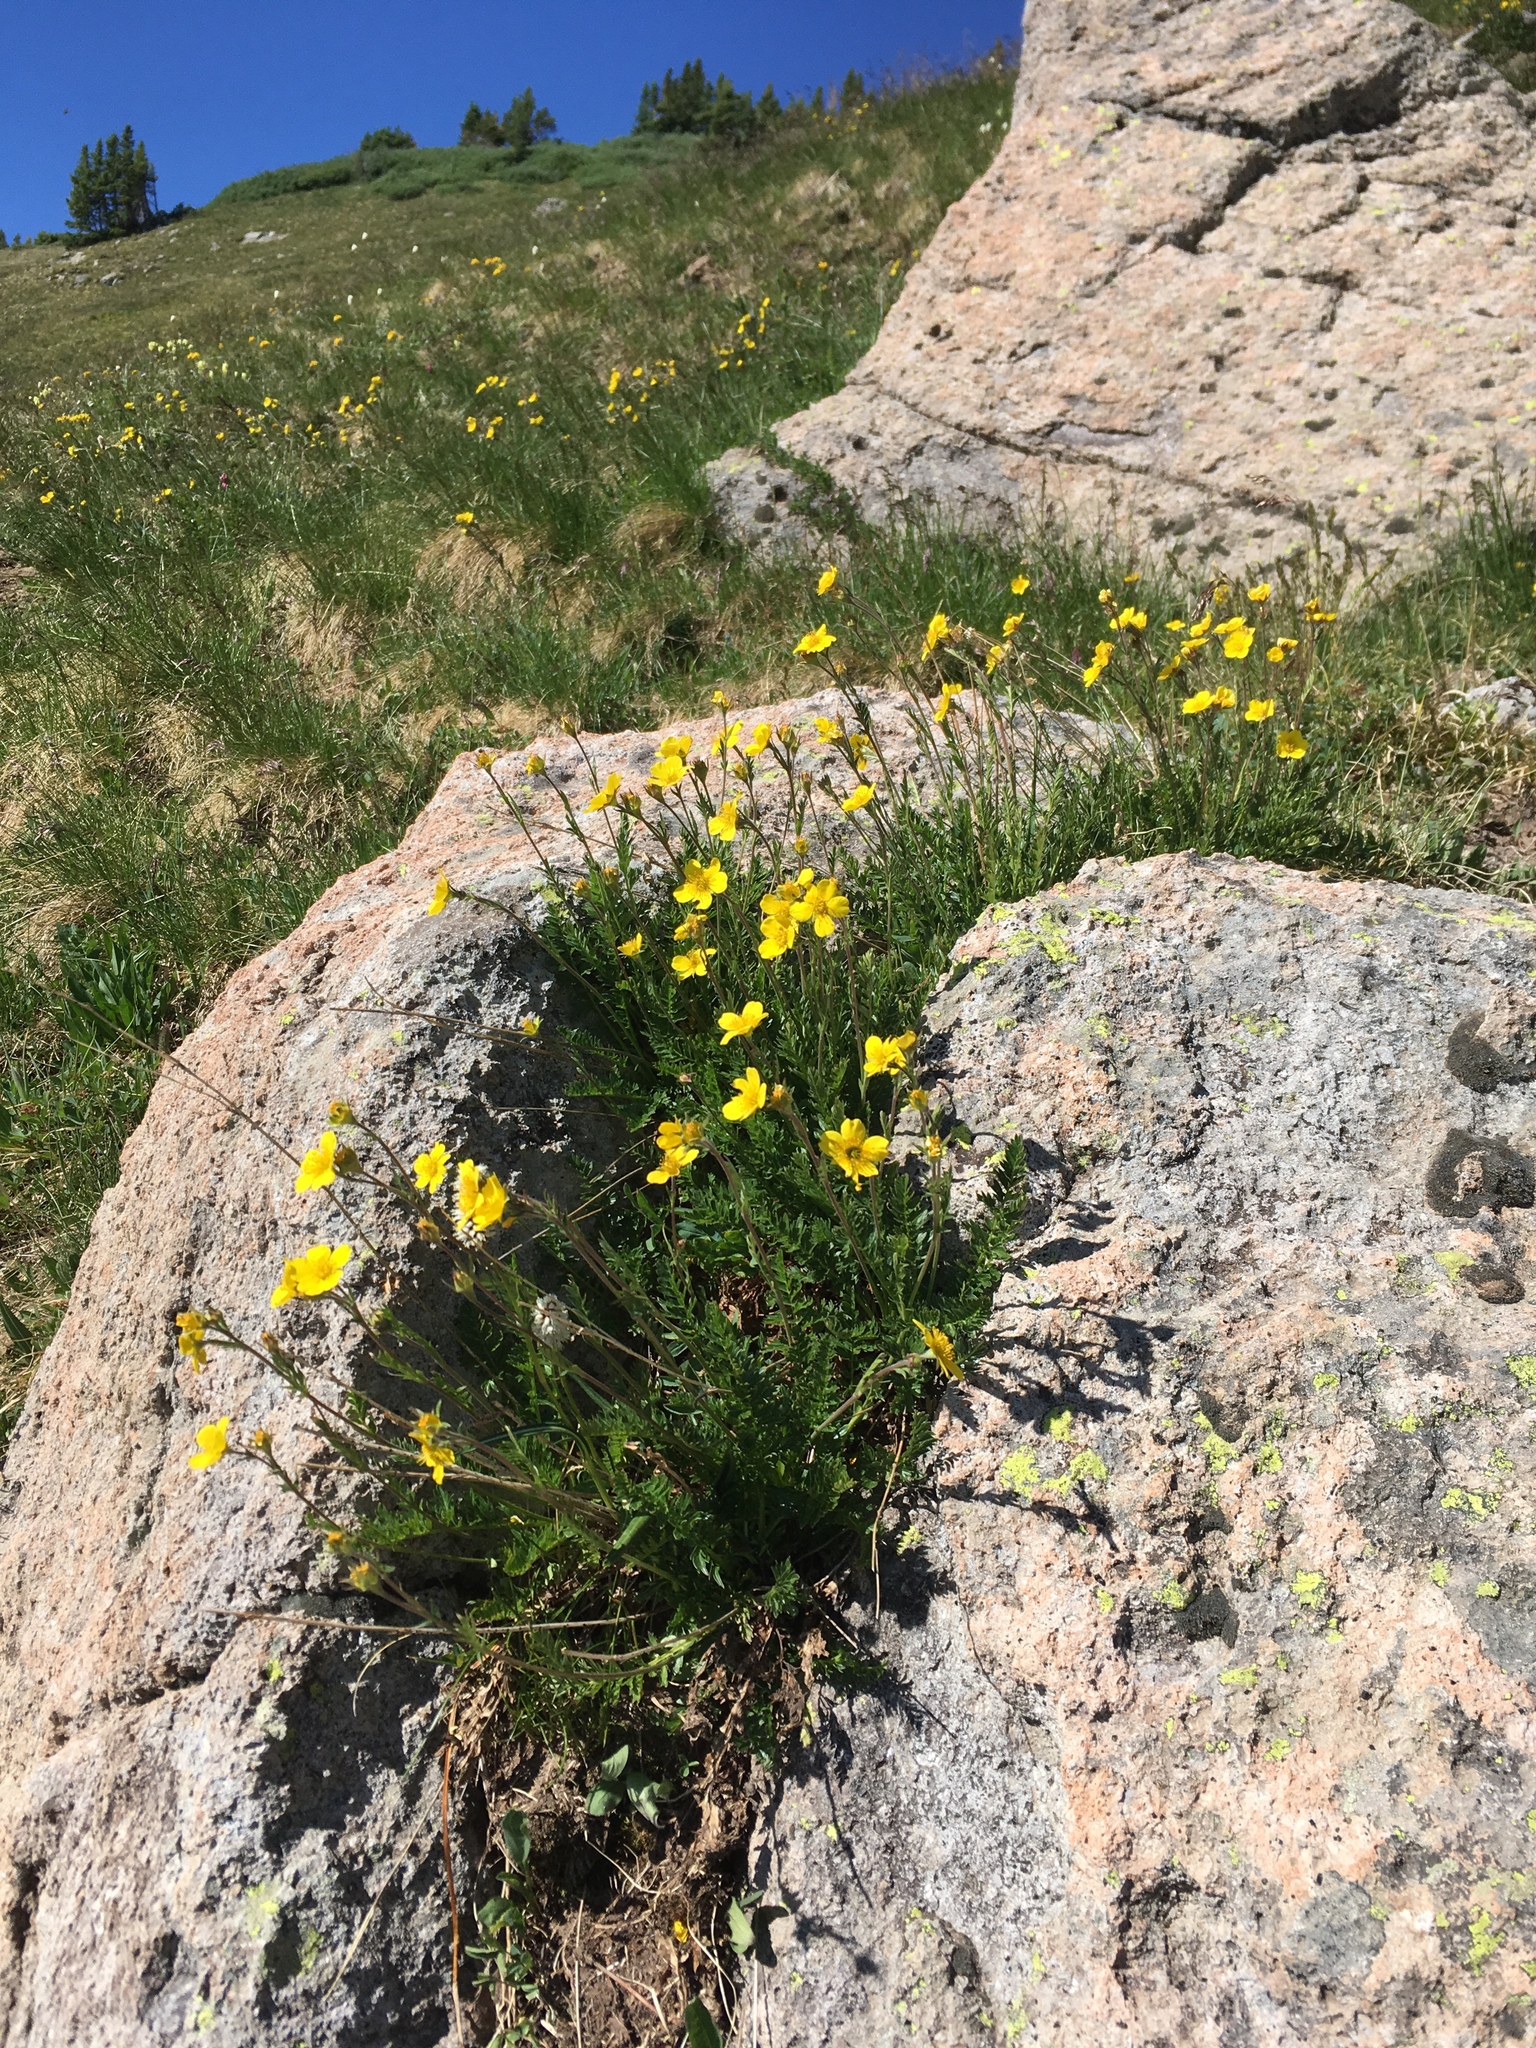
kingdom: Plantae
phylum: Tracheophyta
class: Magnoliopsida
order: Rosales
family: Rosaceae
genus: Geum
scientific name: Geum rossii
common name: Alpine avens
